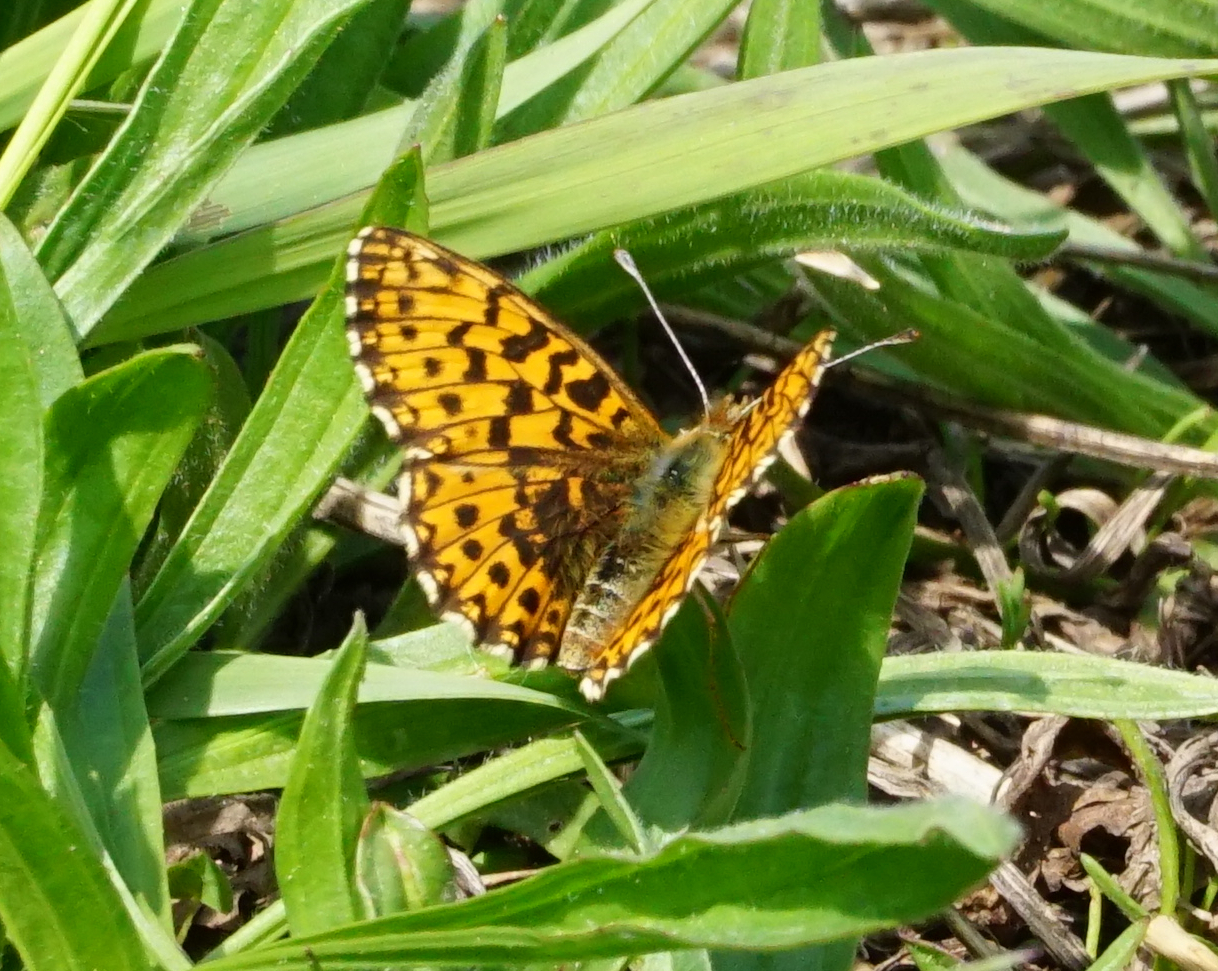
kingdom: Animalia
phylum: Arthropoda
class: Insecta
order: Lepidoptera
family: Nymphalidae
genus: Boloria
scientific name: Boloria dia
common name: Weaver's fritillary
